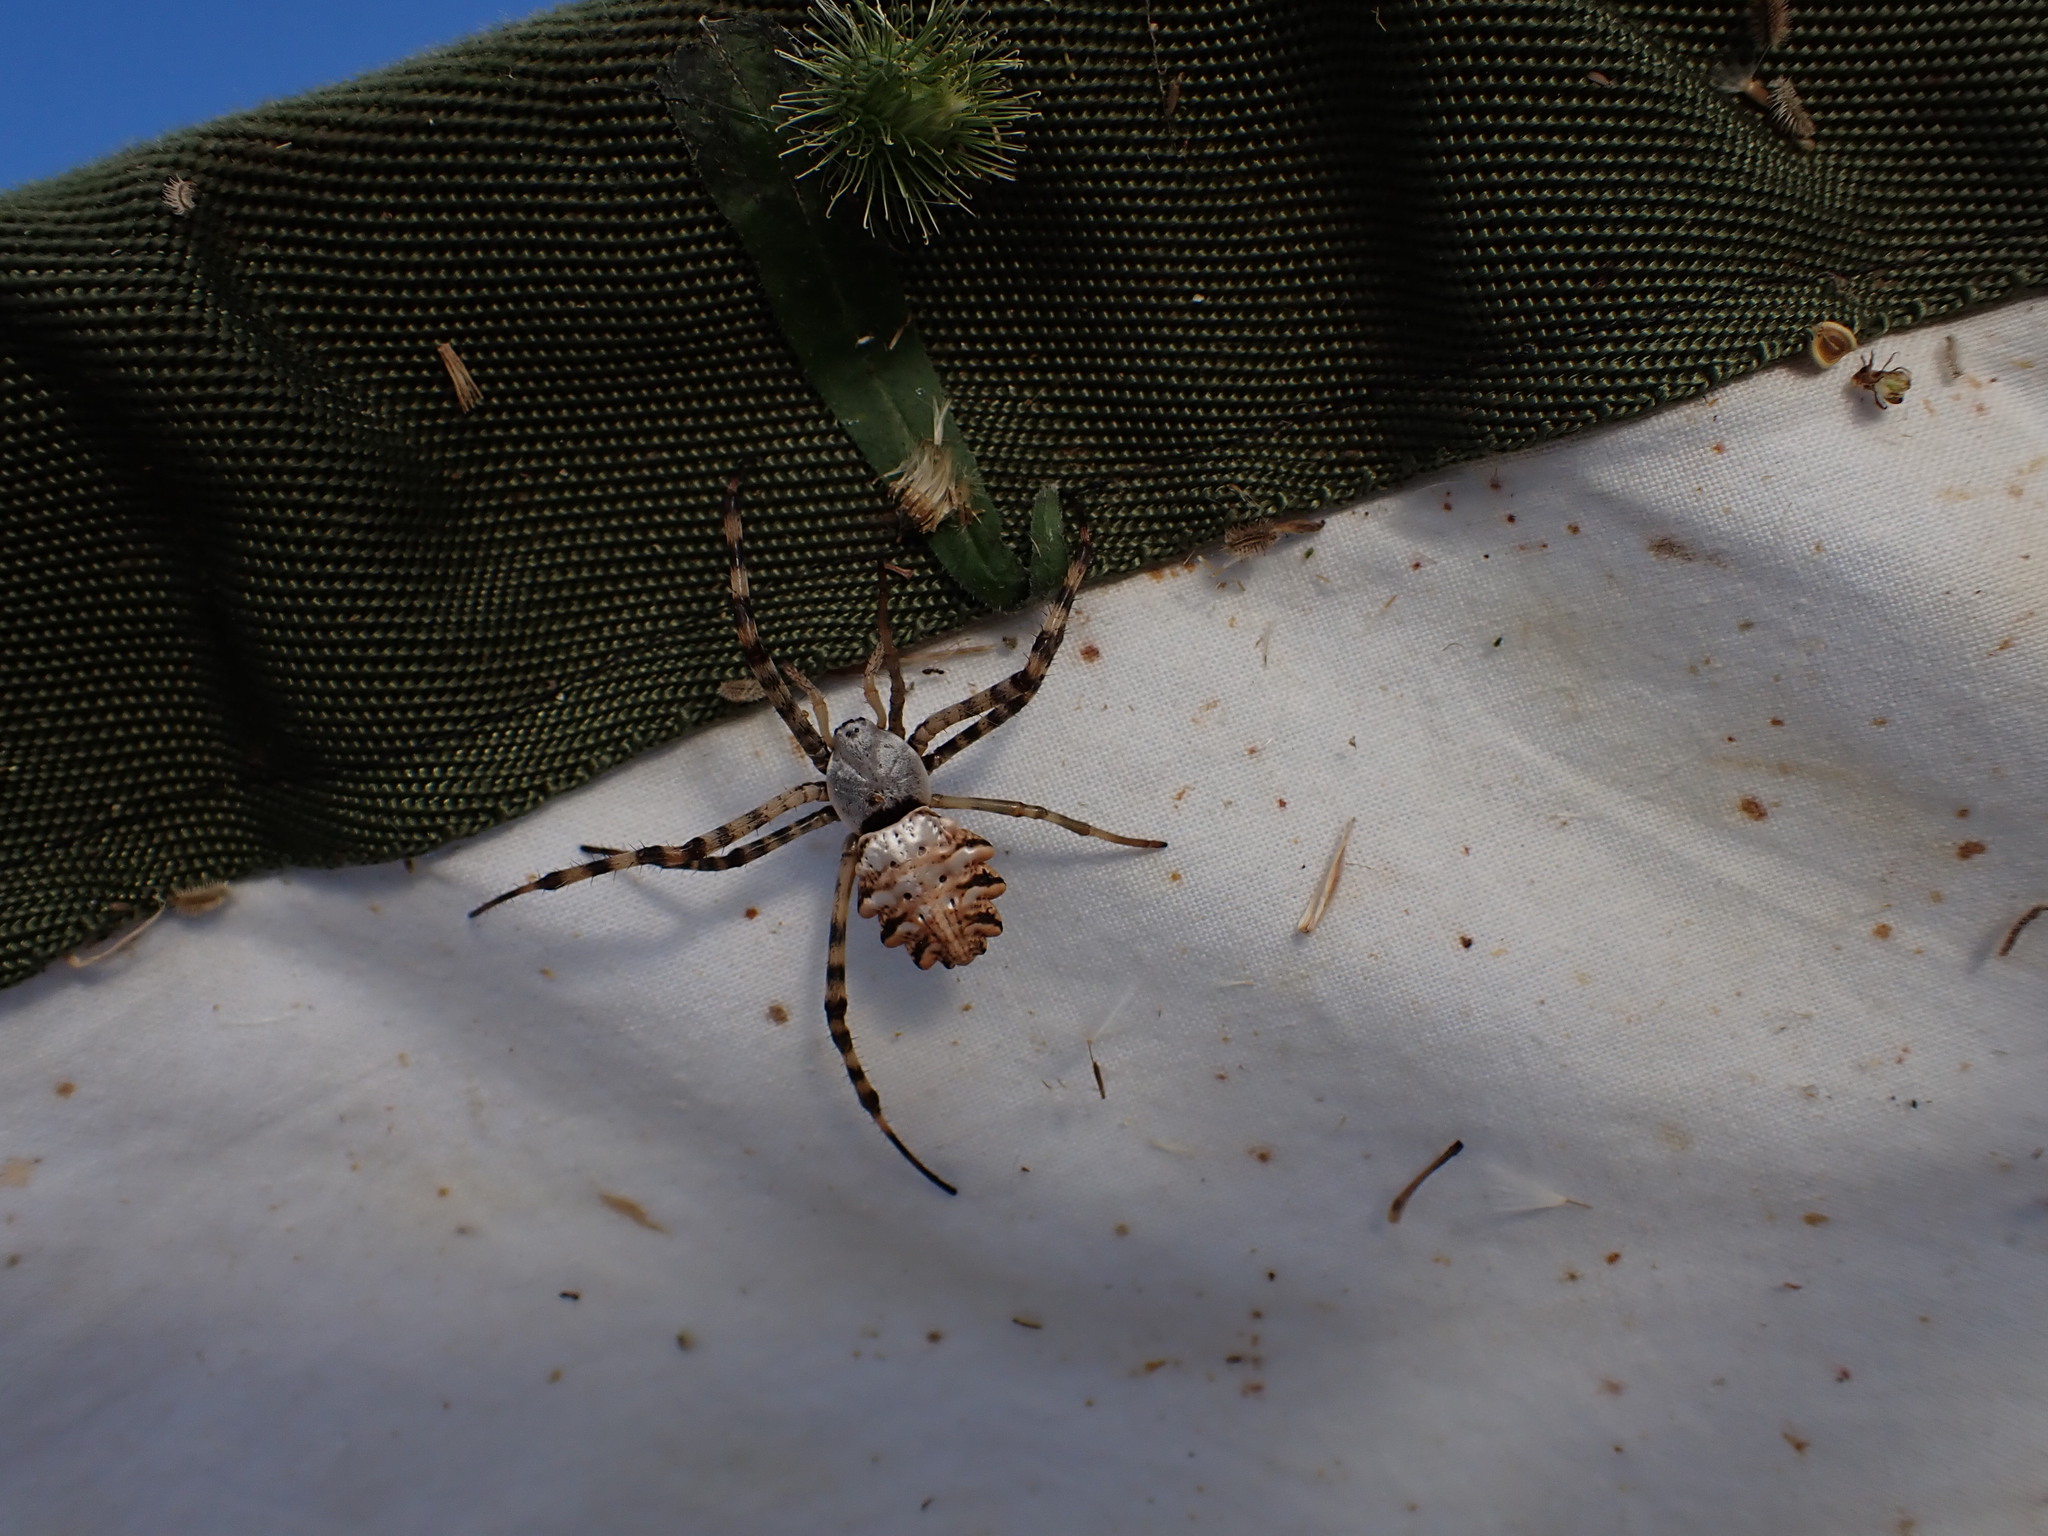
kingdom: Animalia
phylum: Arthropoda
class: Arachnida
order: Araneae
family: Araneidae
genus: Argiope
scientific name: Argiope lobata
